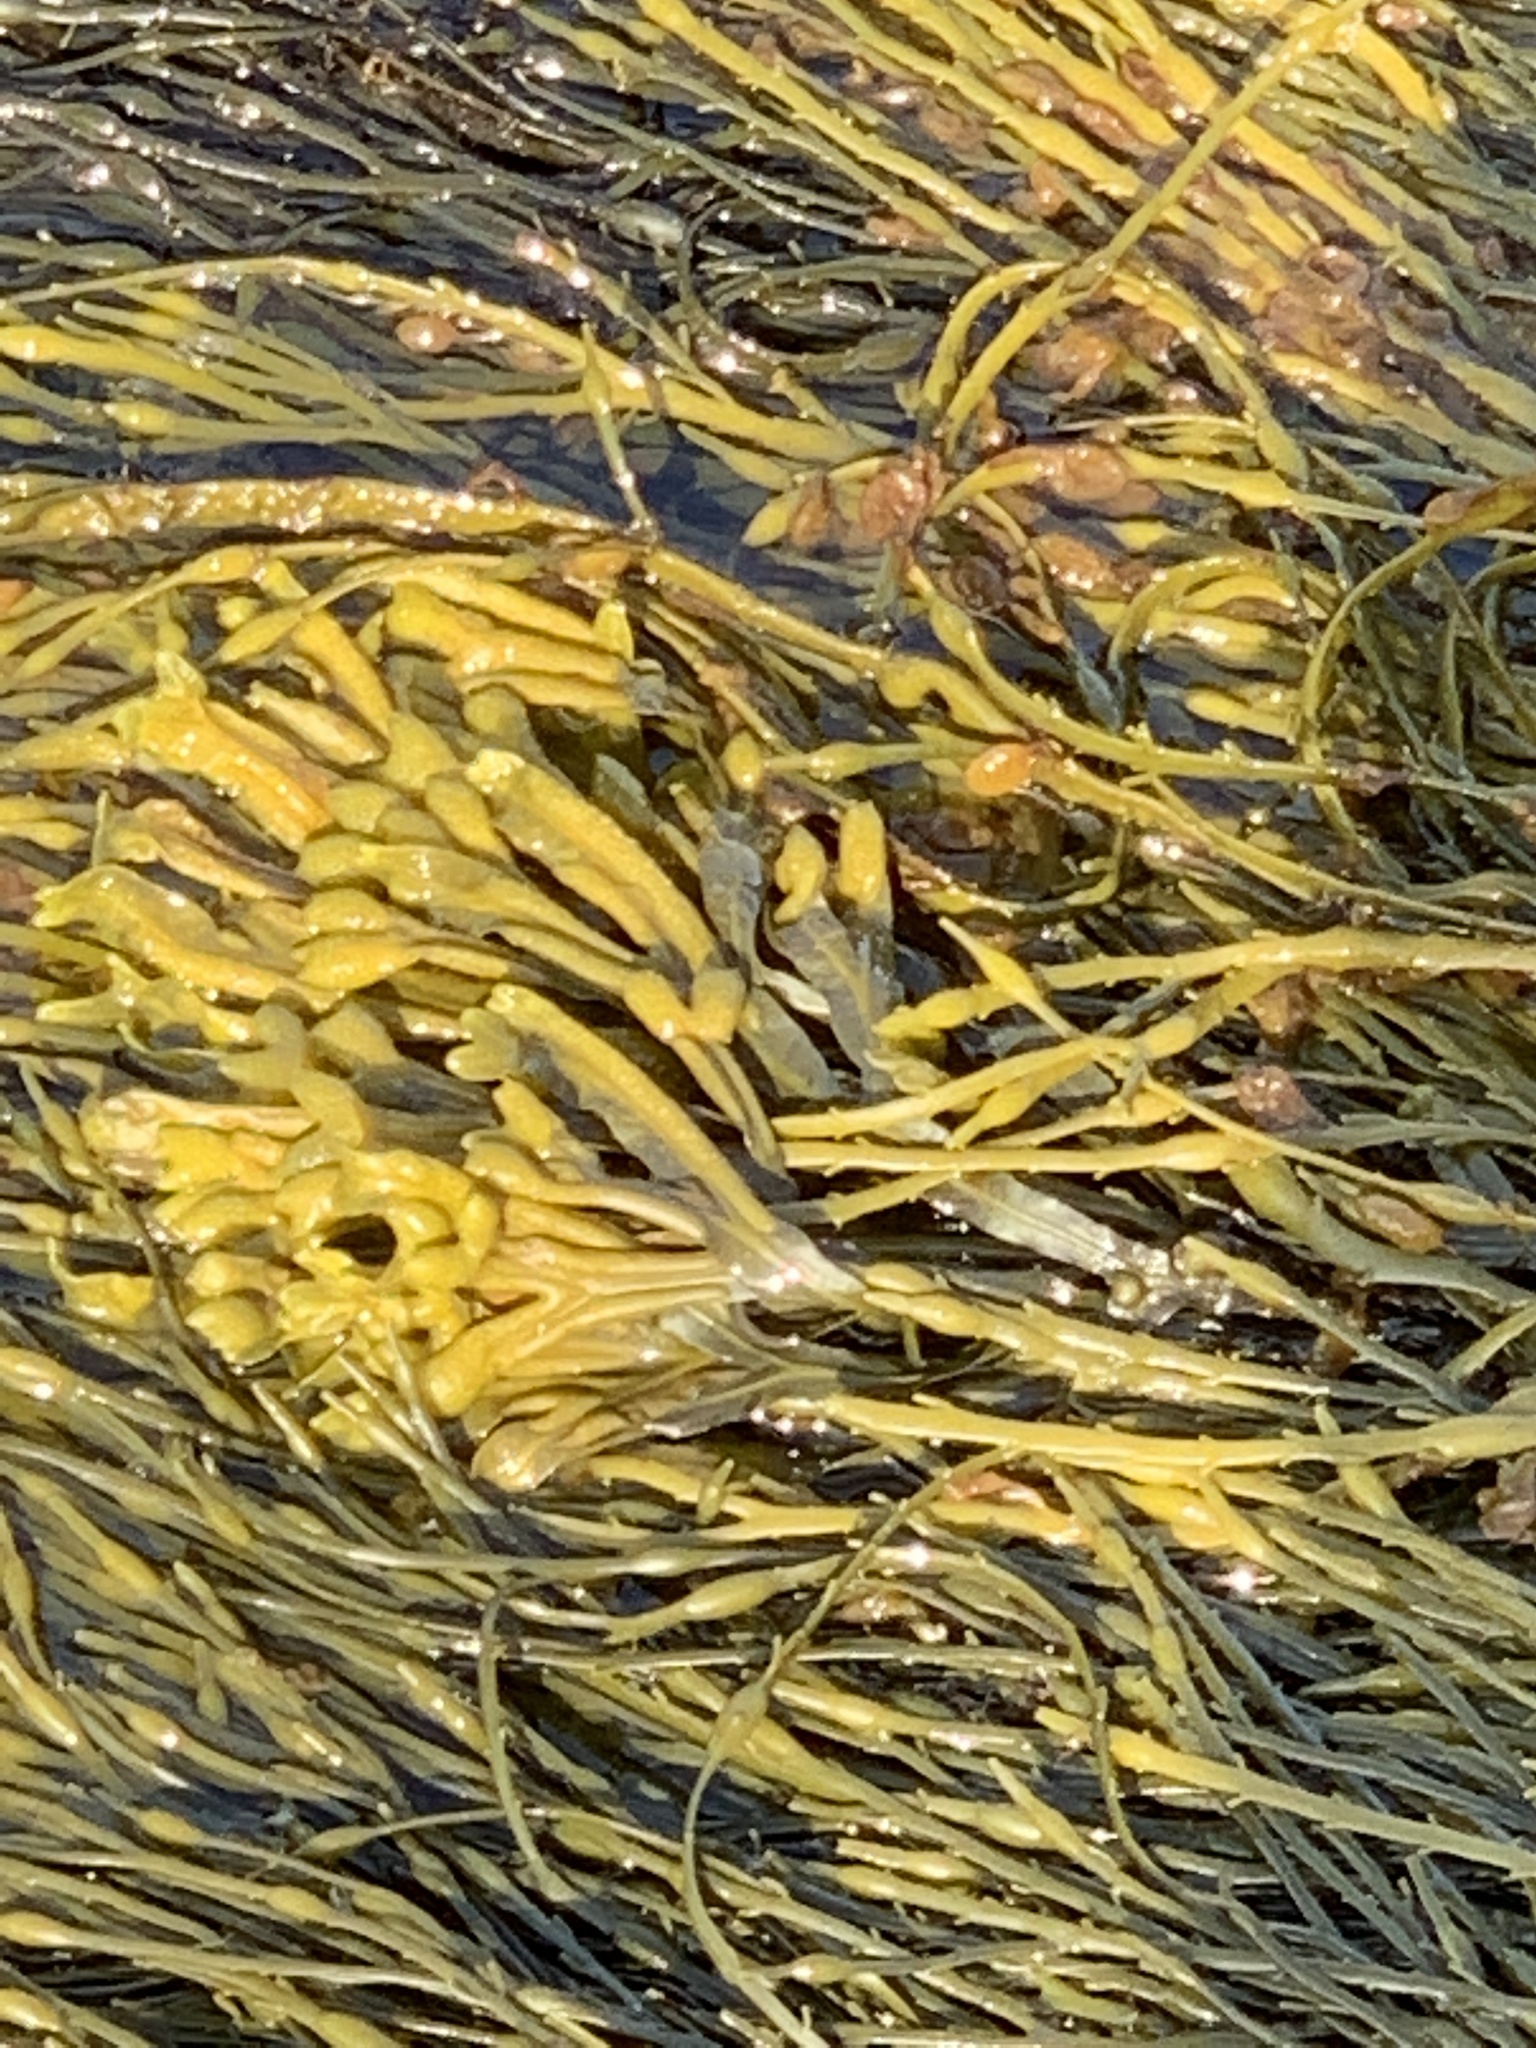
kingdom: Chromista
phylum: Ochrophyta
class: Phaeophyceae
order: Fucales
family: Fucaceae
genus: Ascophyllum
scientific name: Ascophyllum nodosum
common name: Knotted wrack
